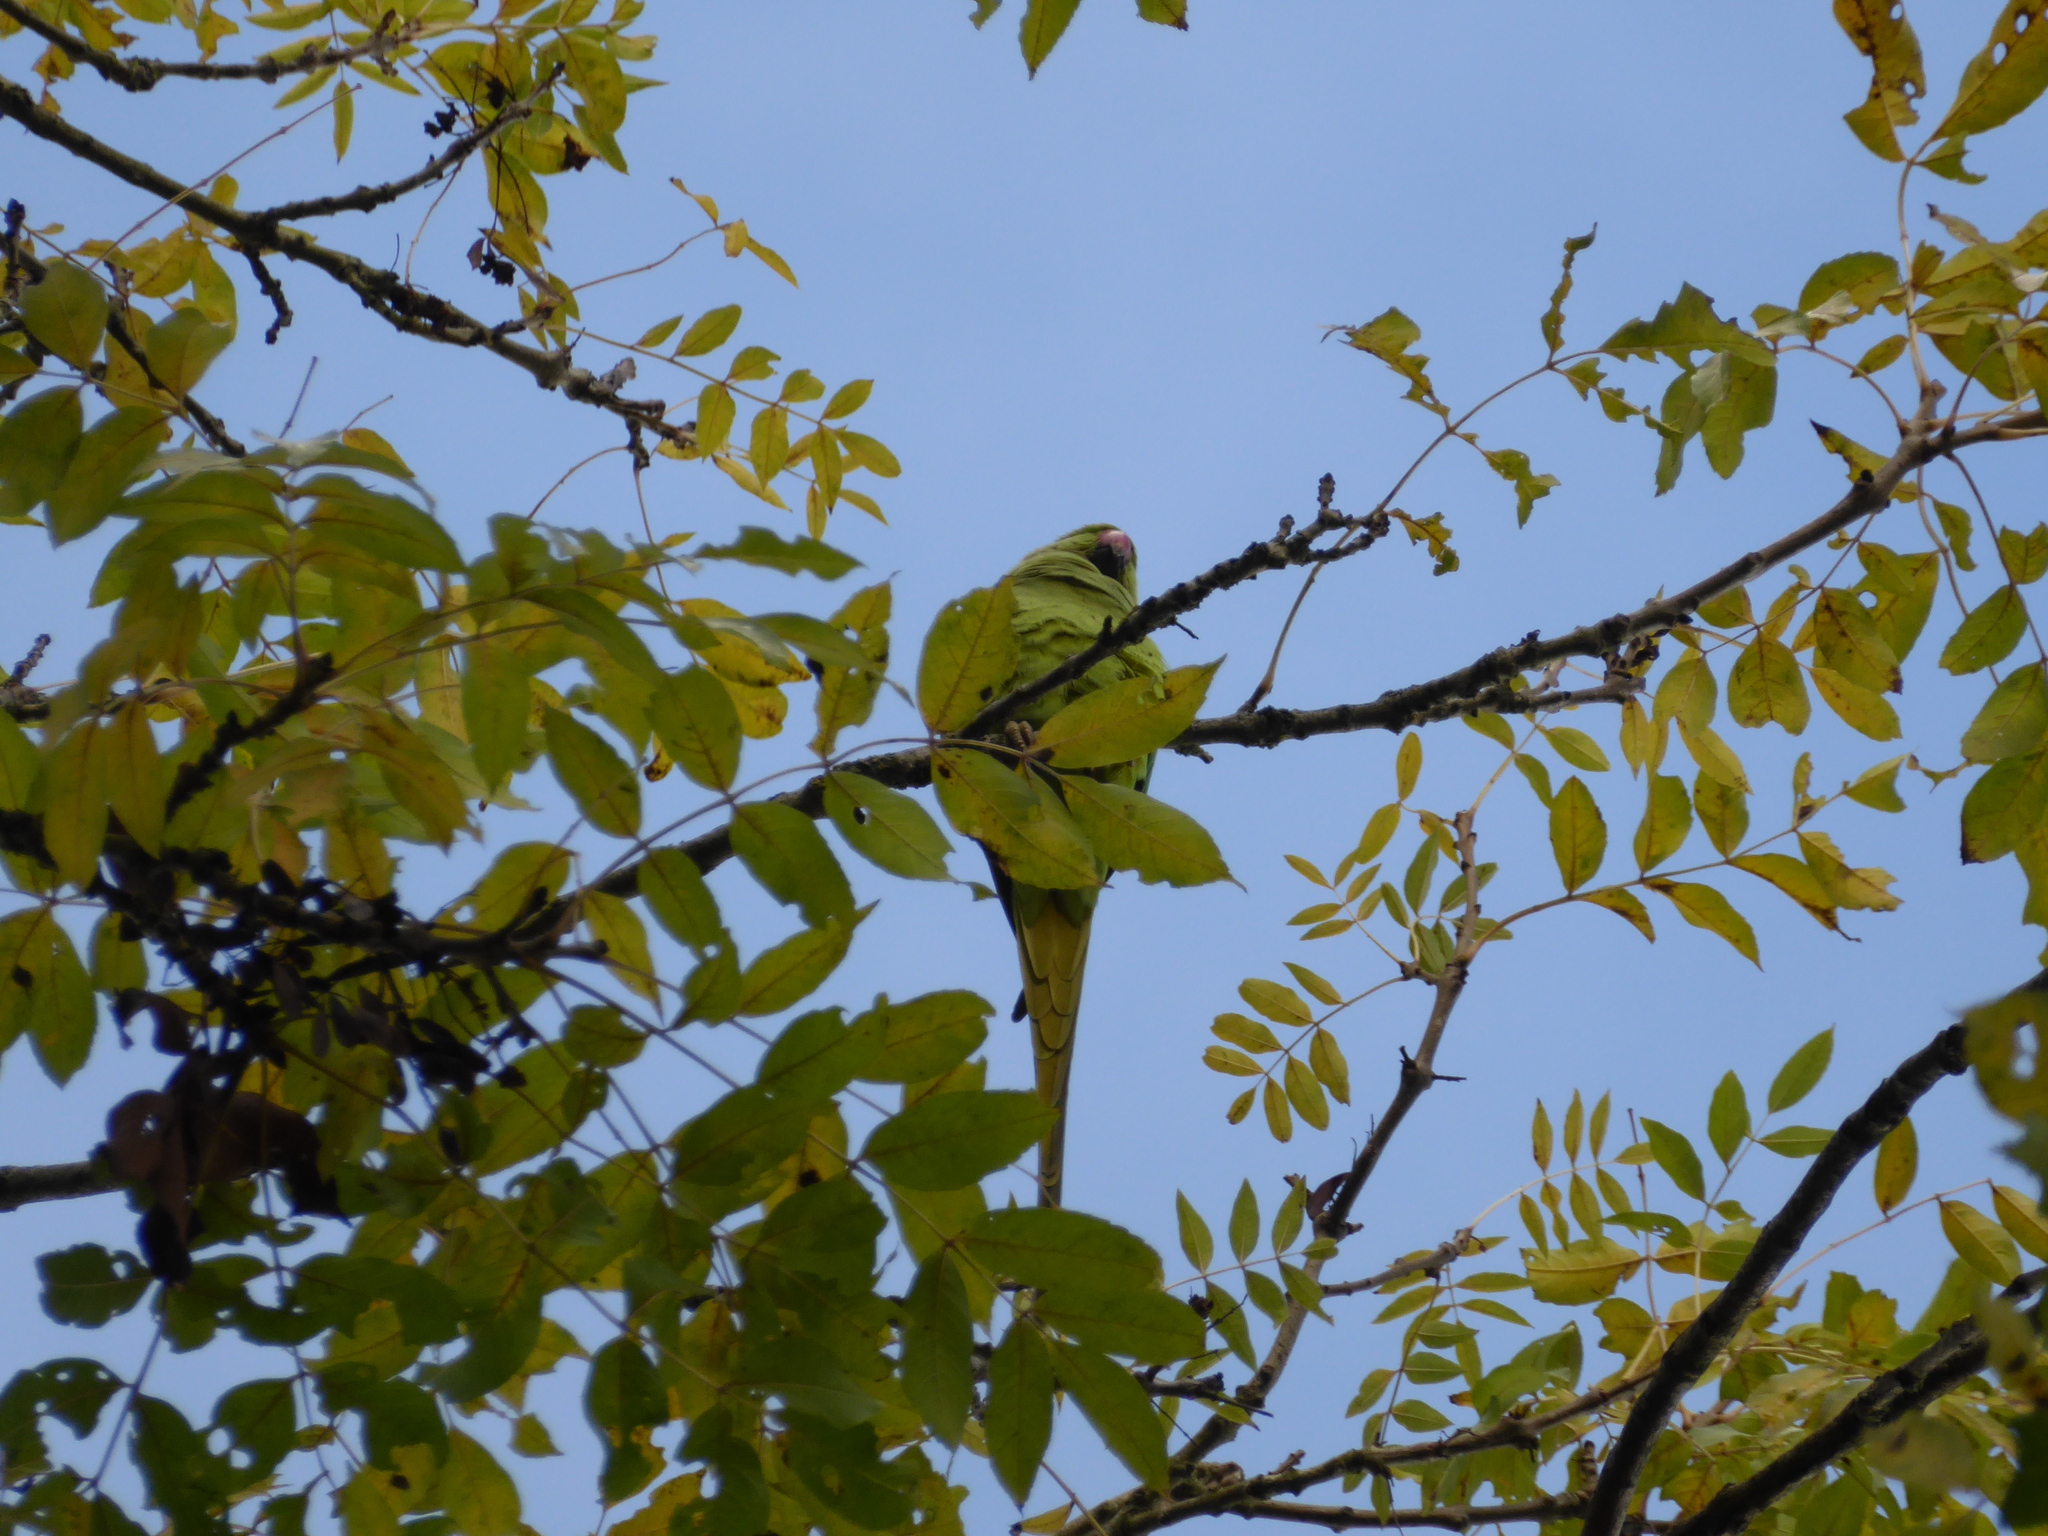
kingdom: Plantae
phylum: Tracheophyta
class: Magnoliopsida
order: Lamiales
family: Oleaceae
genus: Fraxinus
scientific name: Fraxinus excelsior
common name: European ash
